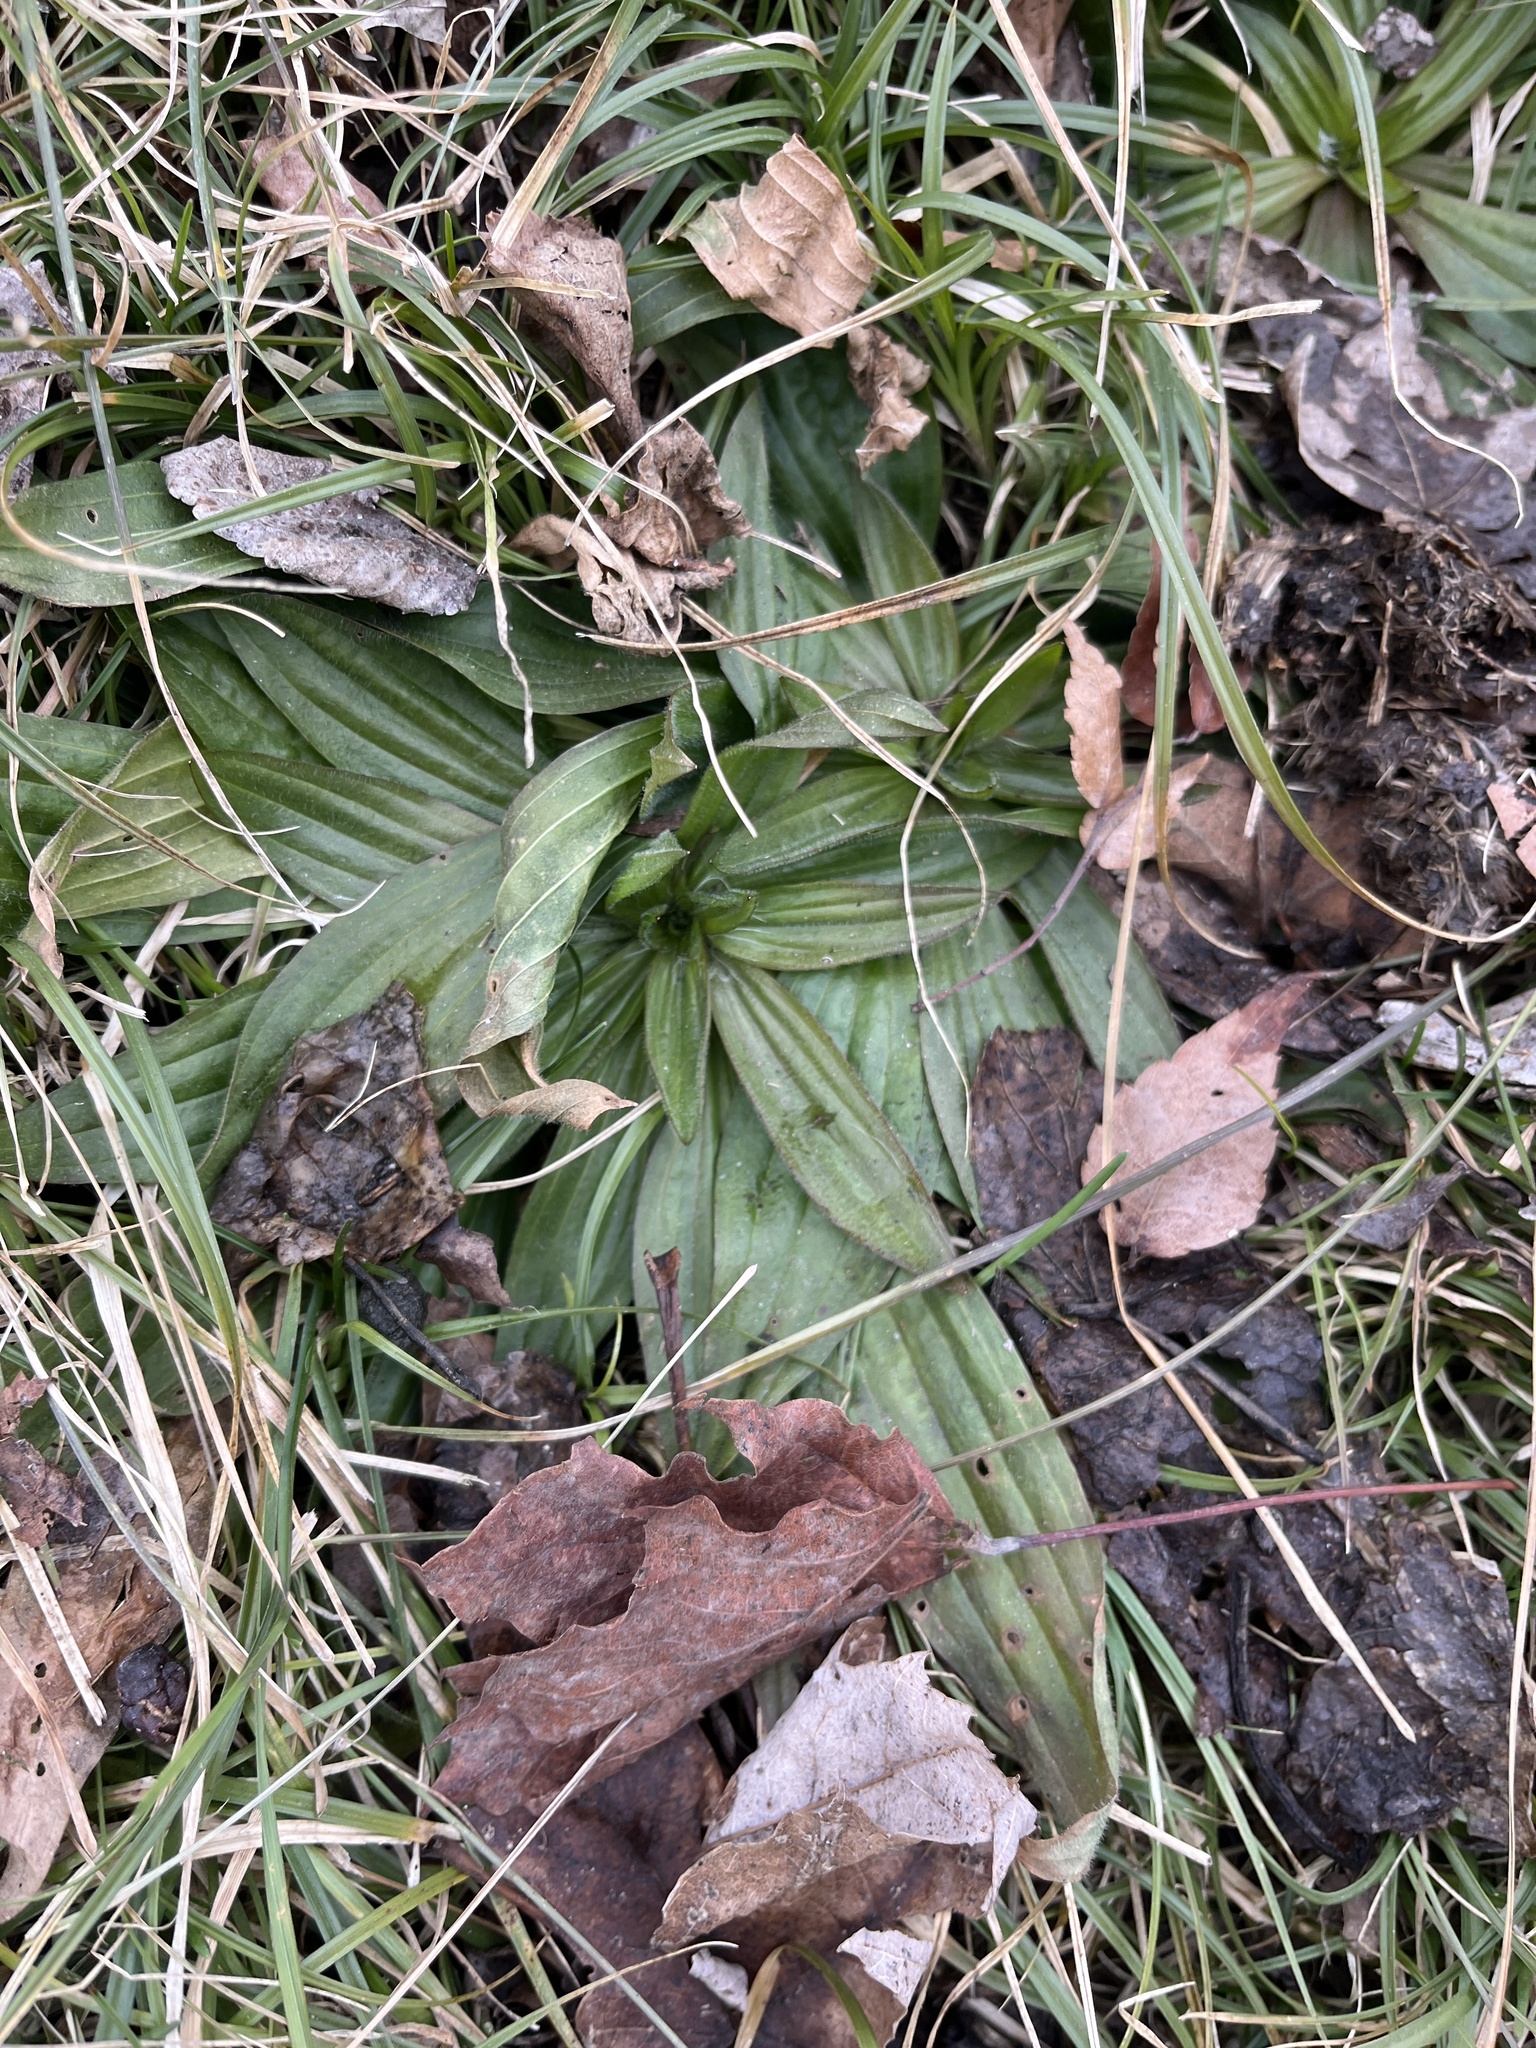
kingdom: Plantae
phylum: Tracheophyta
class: Magnoliopsida
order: Lamiales
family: Plantaginaceae
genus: Plantago
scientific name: Plantago lanceolata
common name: Ribwort plantain
